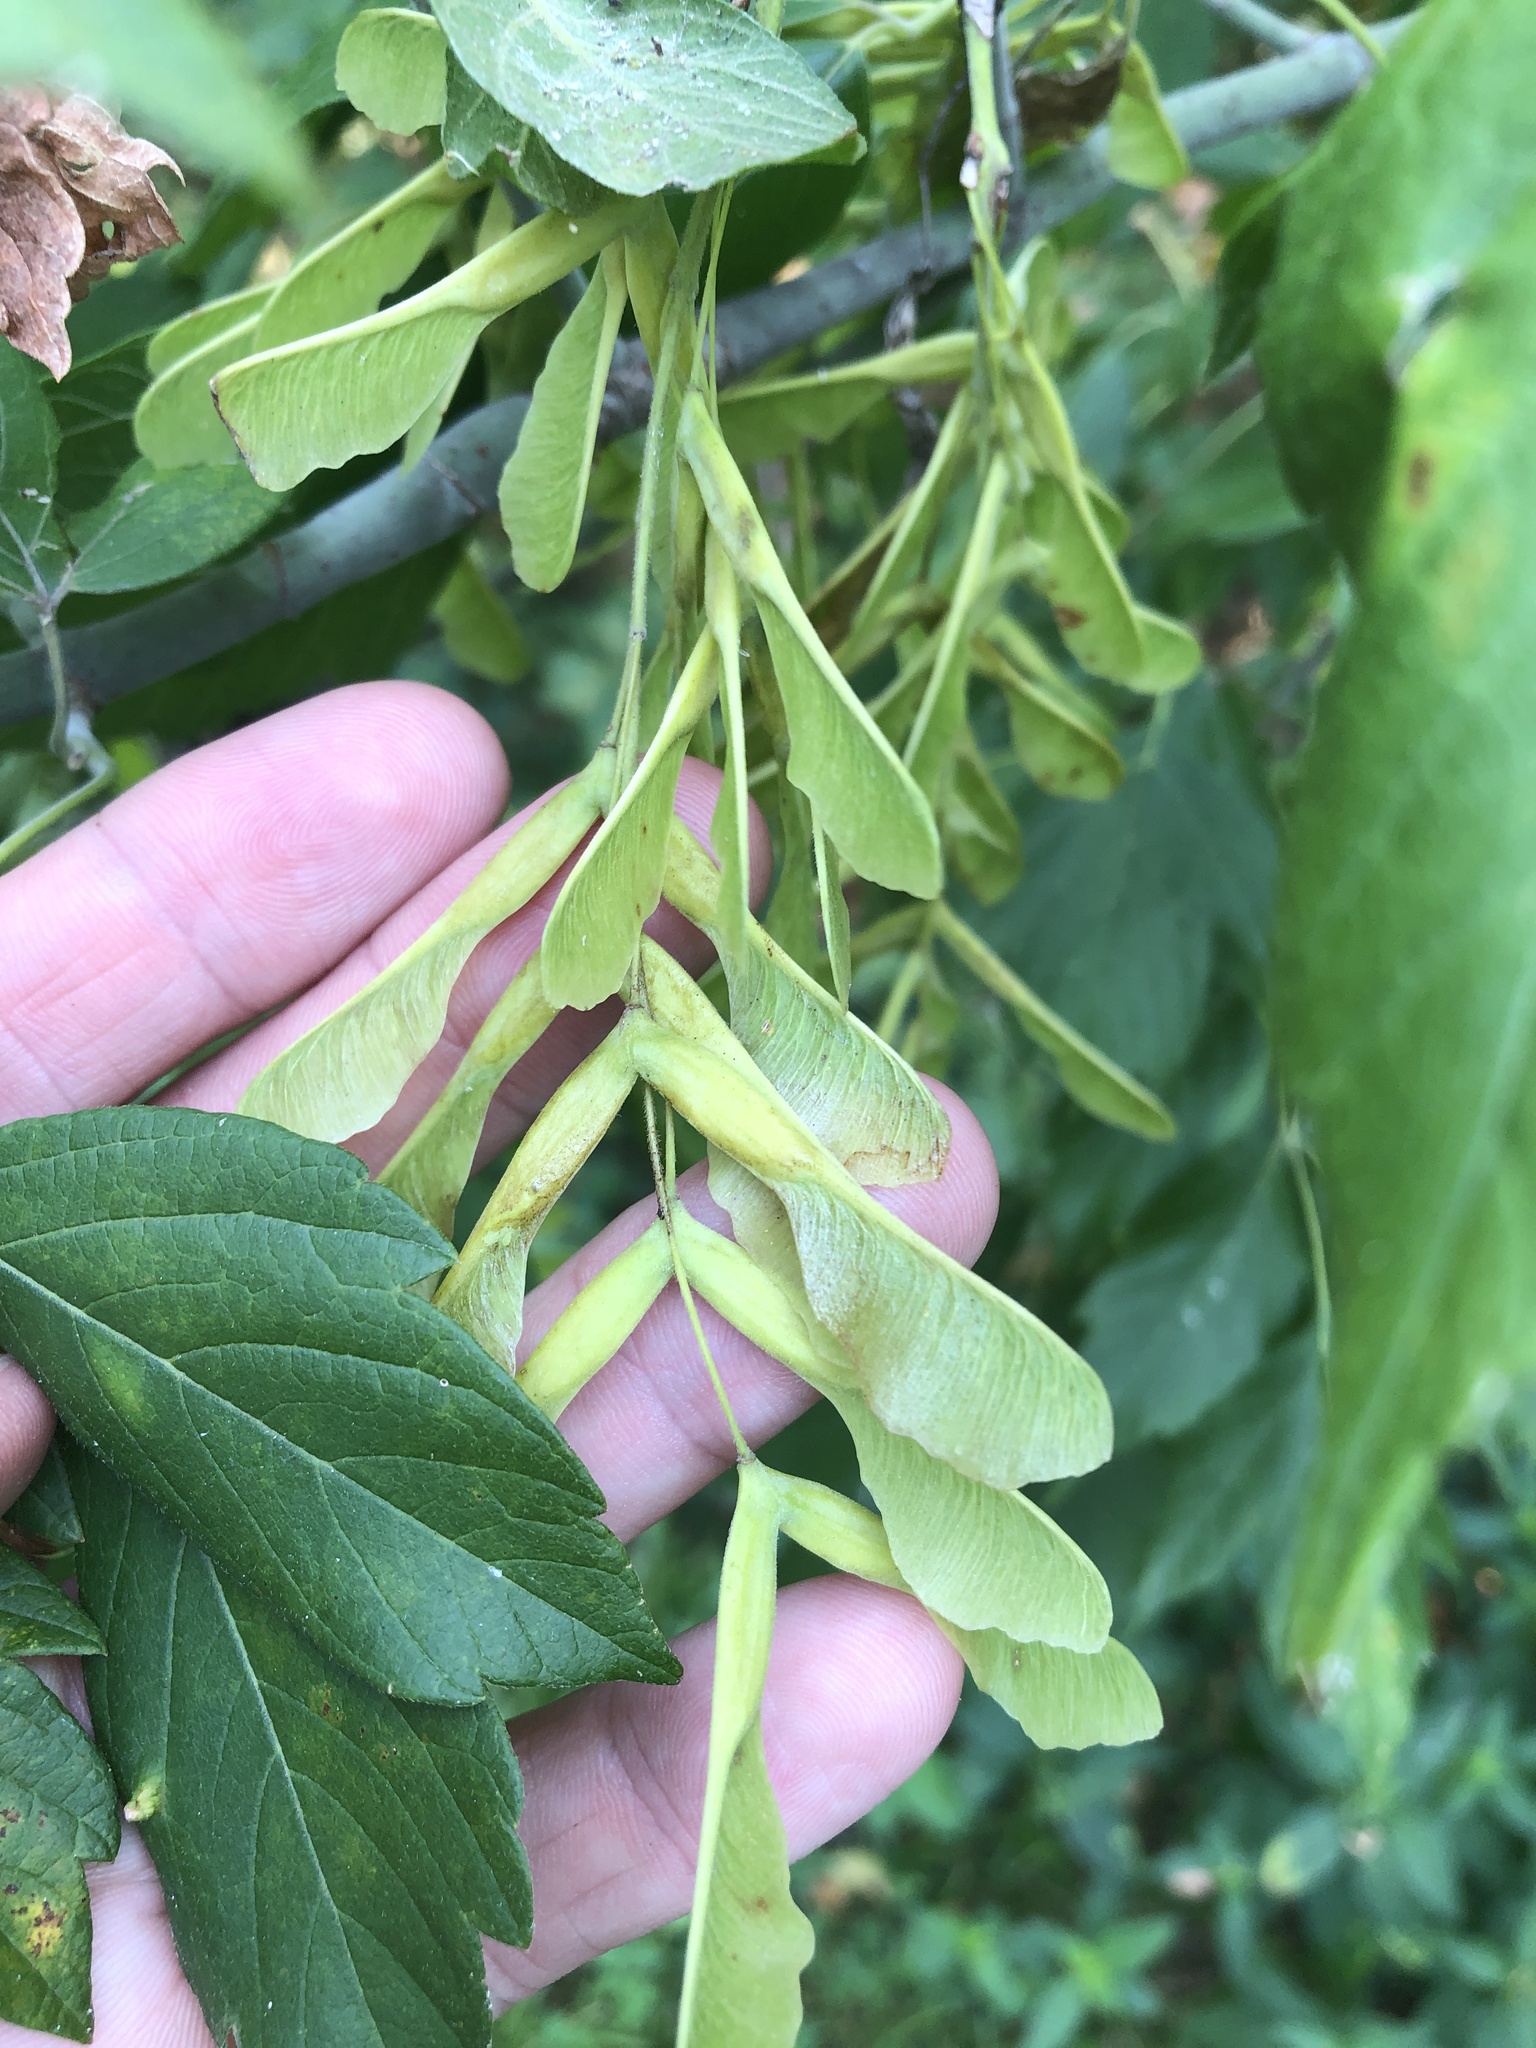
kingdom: Plantae
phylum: Tracheophyta
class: Magnoliopsida
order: Sapindales
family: Sapindaceae
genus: Acer
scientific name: Acer negundo
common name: Ashleaf maple
